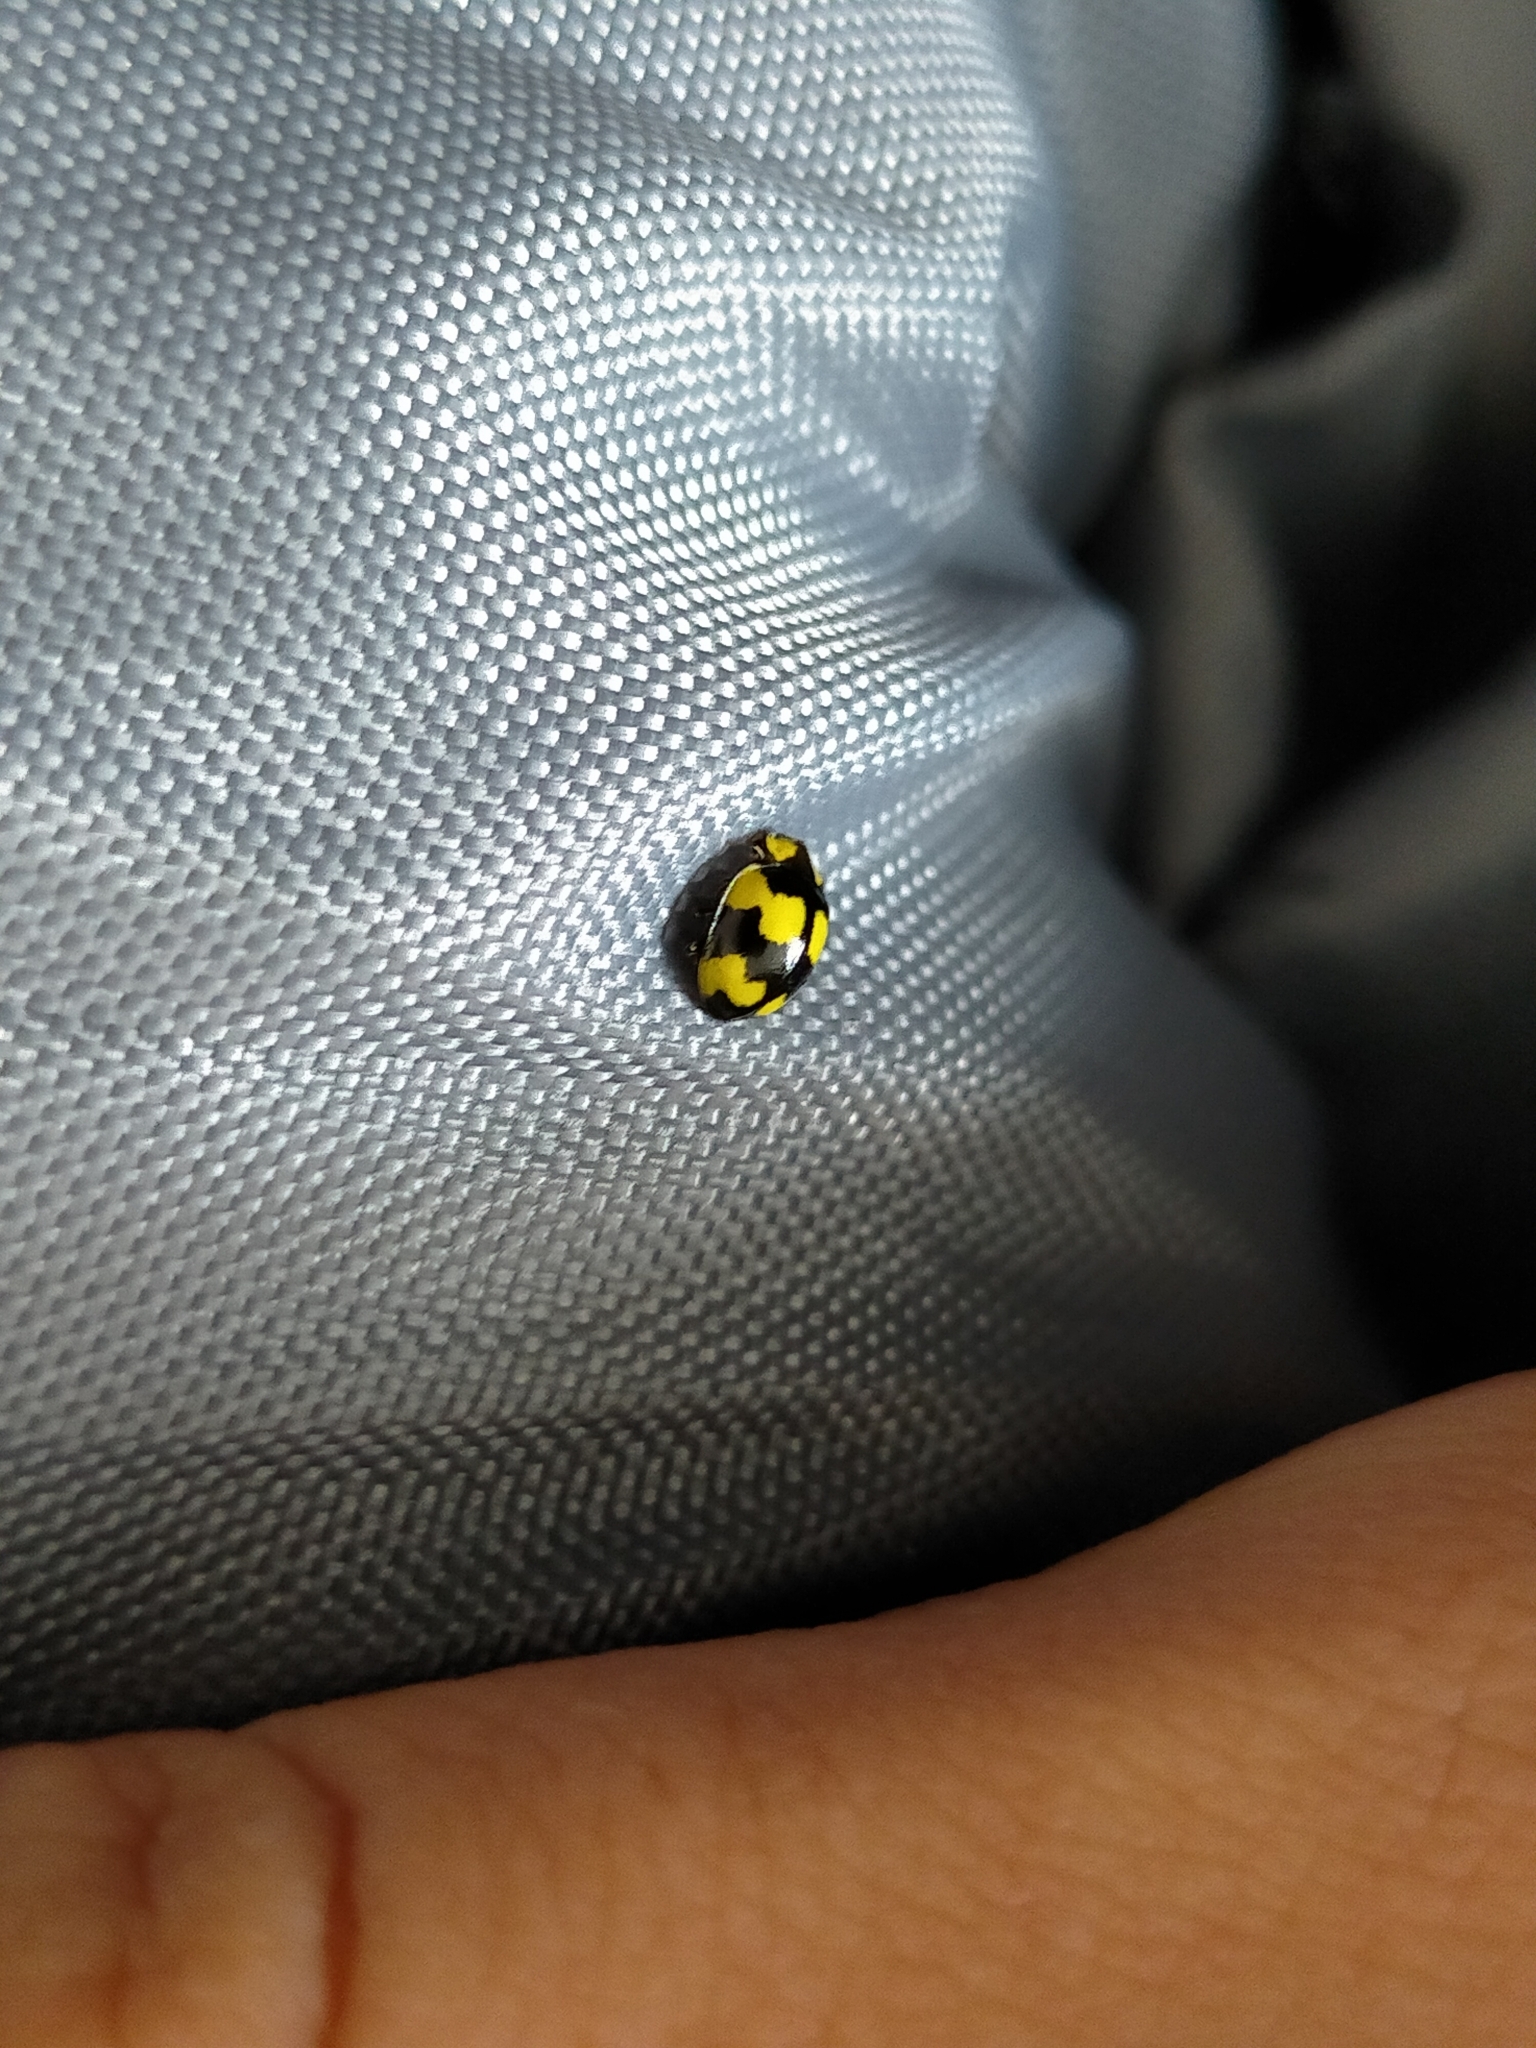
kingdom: Animalia
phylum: Arthropoda
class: Insecta
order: Coleoptera
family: Coccinellidae
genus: Illeis
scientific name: Illeis galbula
